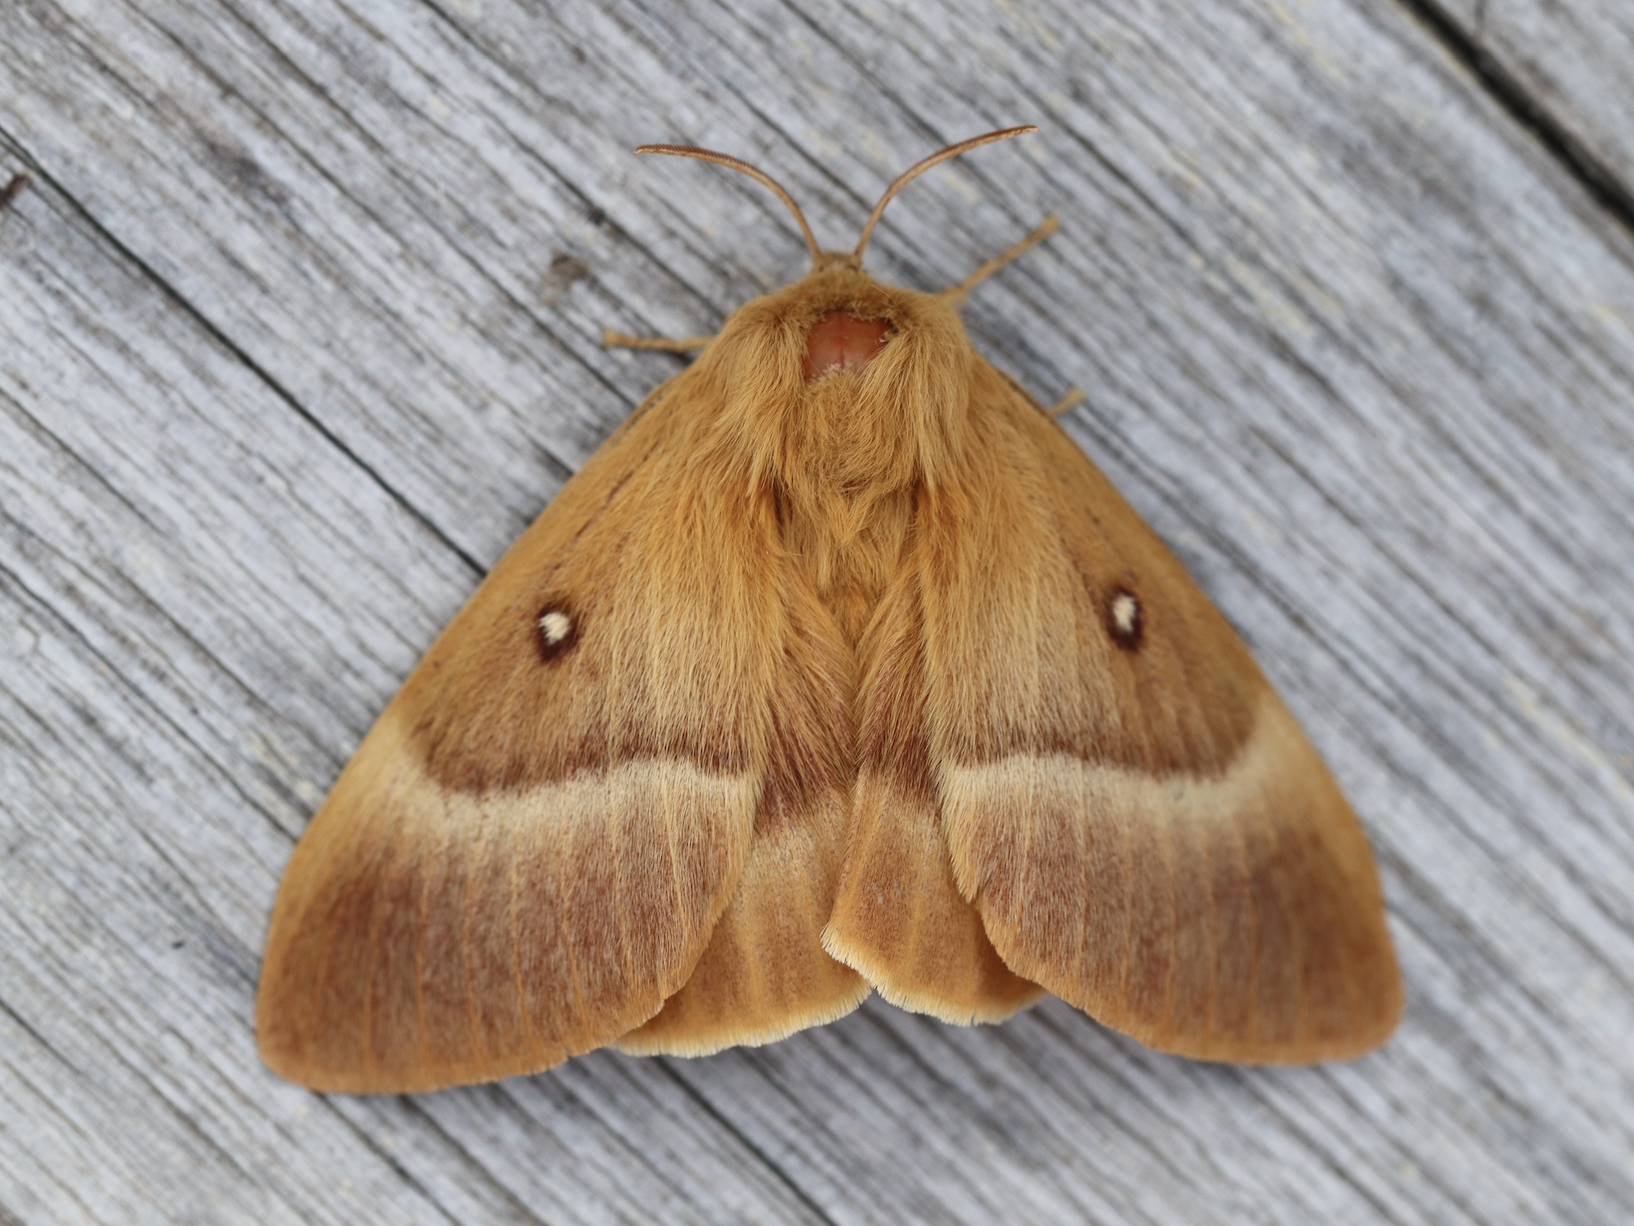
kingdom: Animalia
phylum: Arthropoda
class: Insecta
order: Lepidoptera
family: Lasiocampidae
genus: Lasiocampa
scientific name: Lasiocampa quercus
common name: Oak eggar
